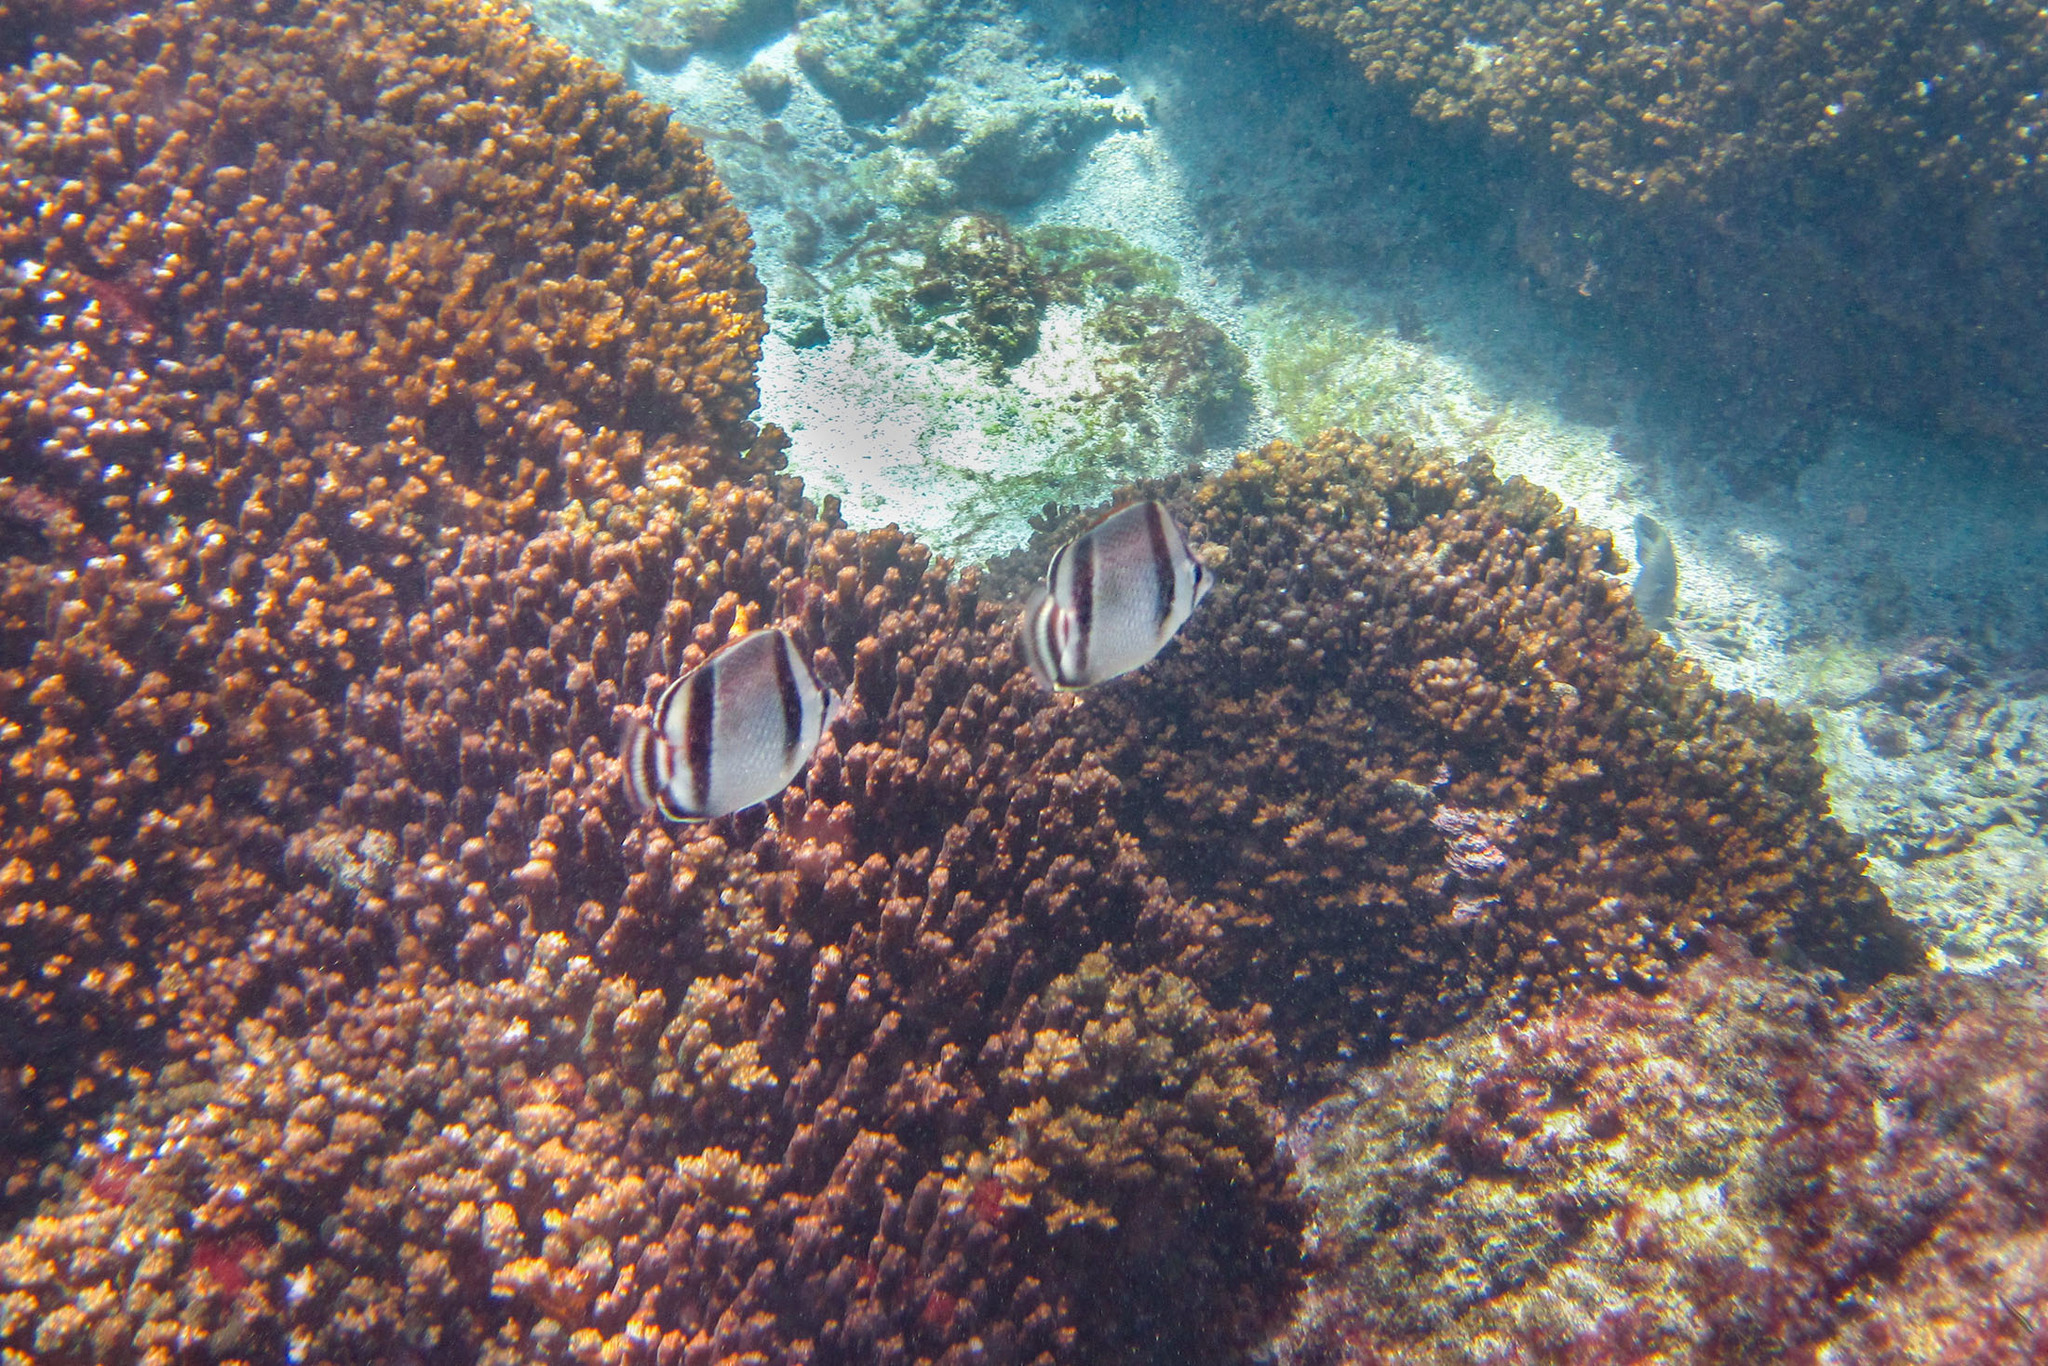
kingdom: Animalia
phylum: Chordata
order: Perciformes
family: Chaetodontidae
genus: Chaetodon
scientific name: Chaetodon humeralis
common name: Threebanded butterflyfish
